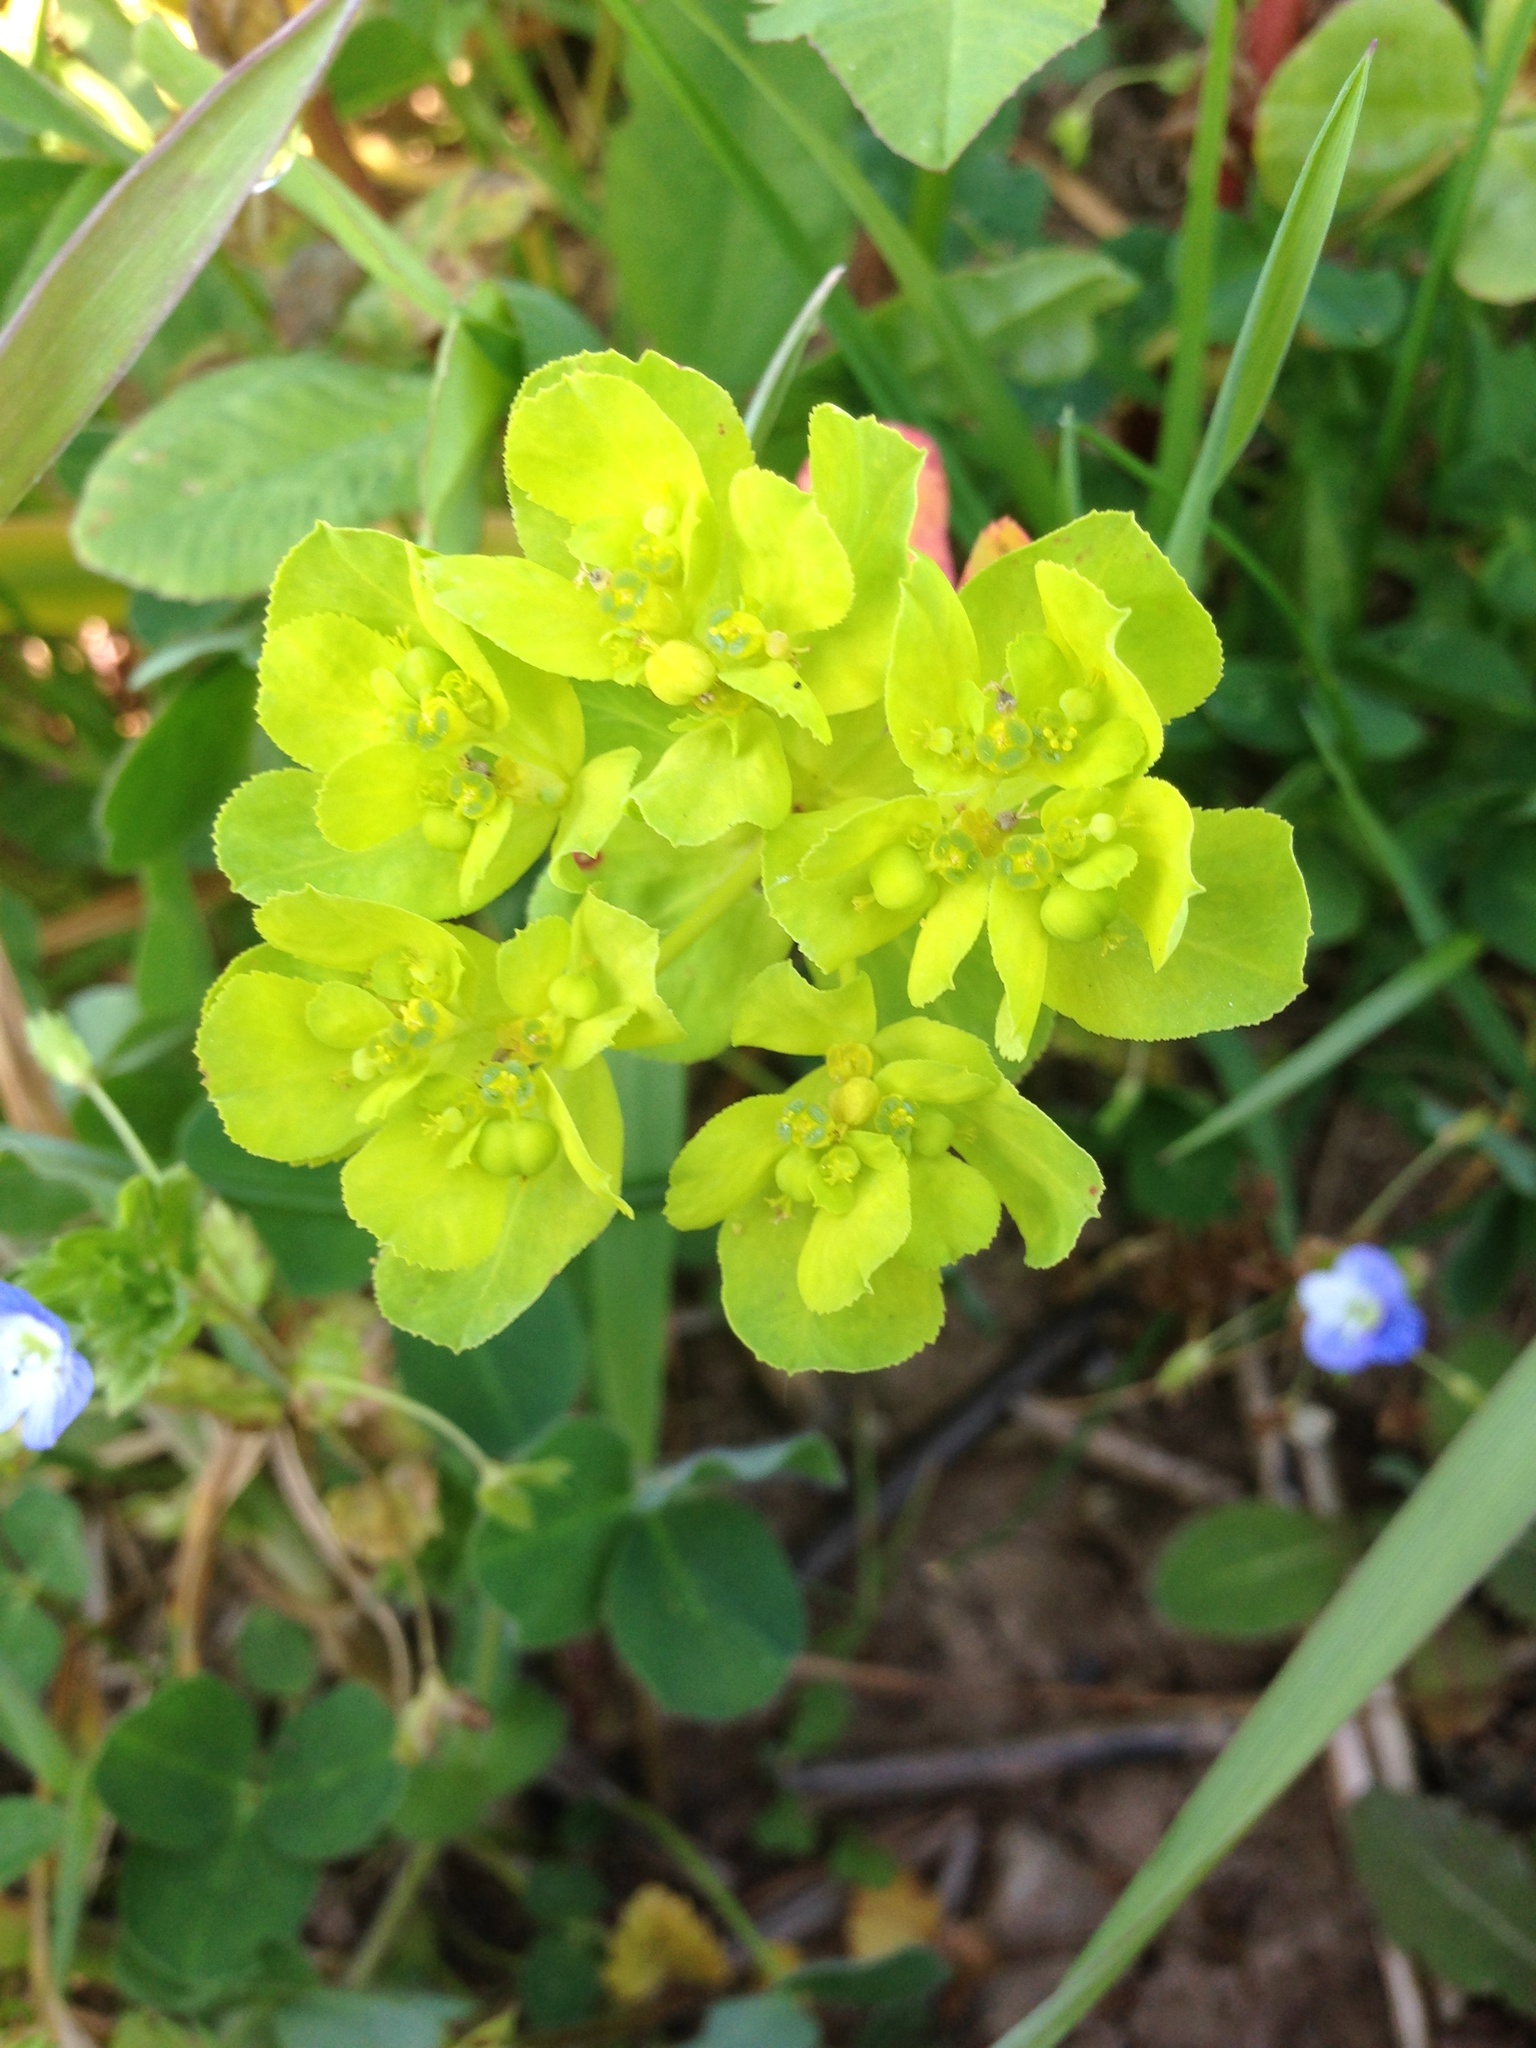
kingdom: Plantae
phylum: Tracheophyta
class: Magnoliopsida
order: Malpighiales
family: Euphorbiaceae
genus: Euphorbia
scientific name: Euphorbia helioscopia
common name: Sun spurge
